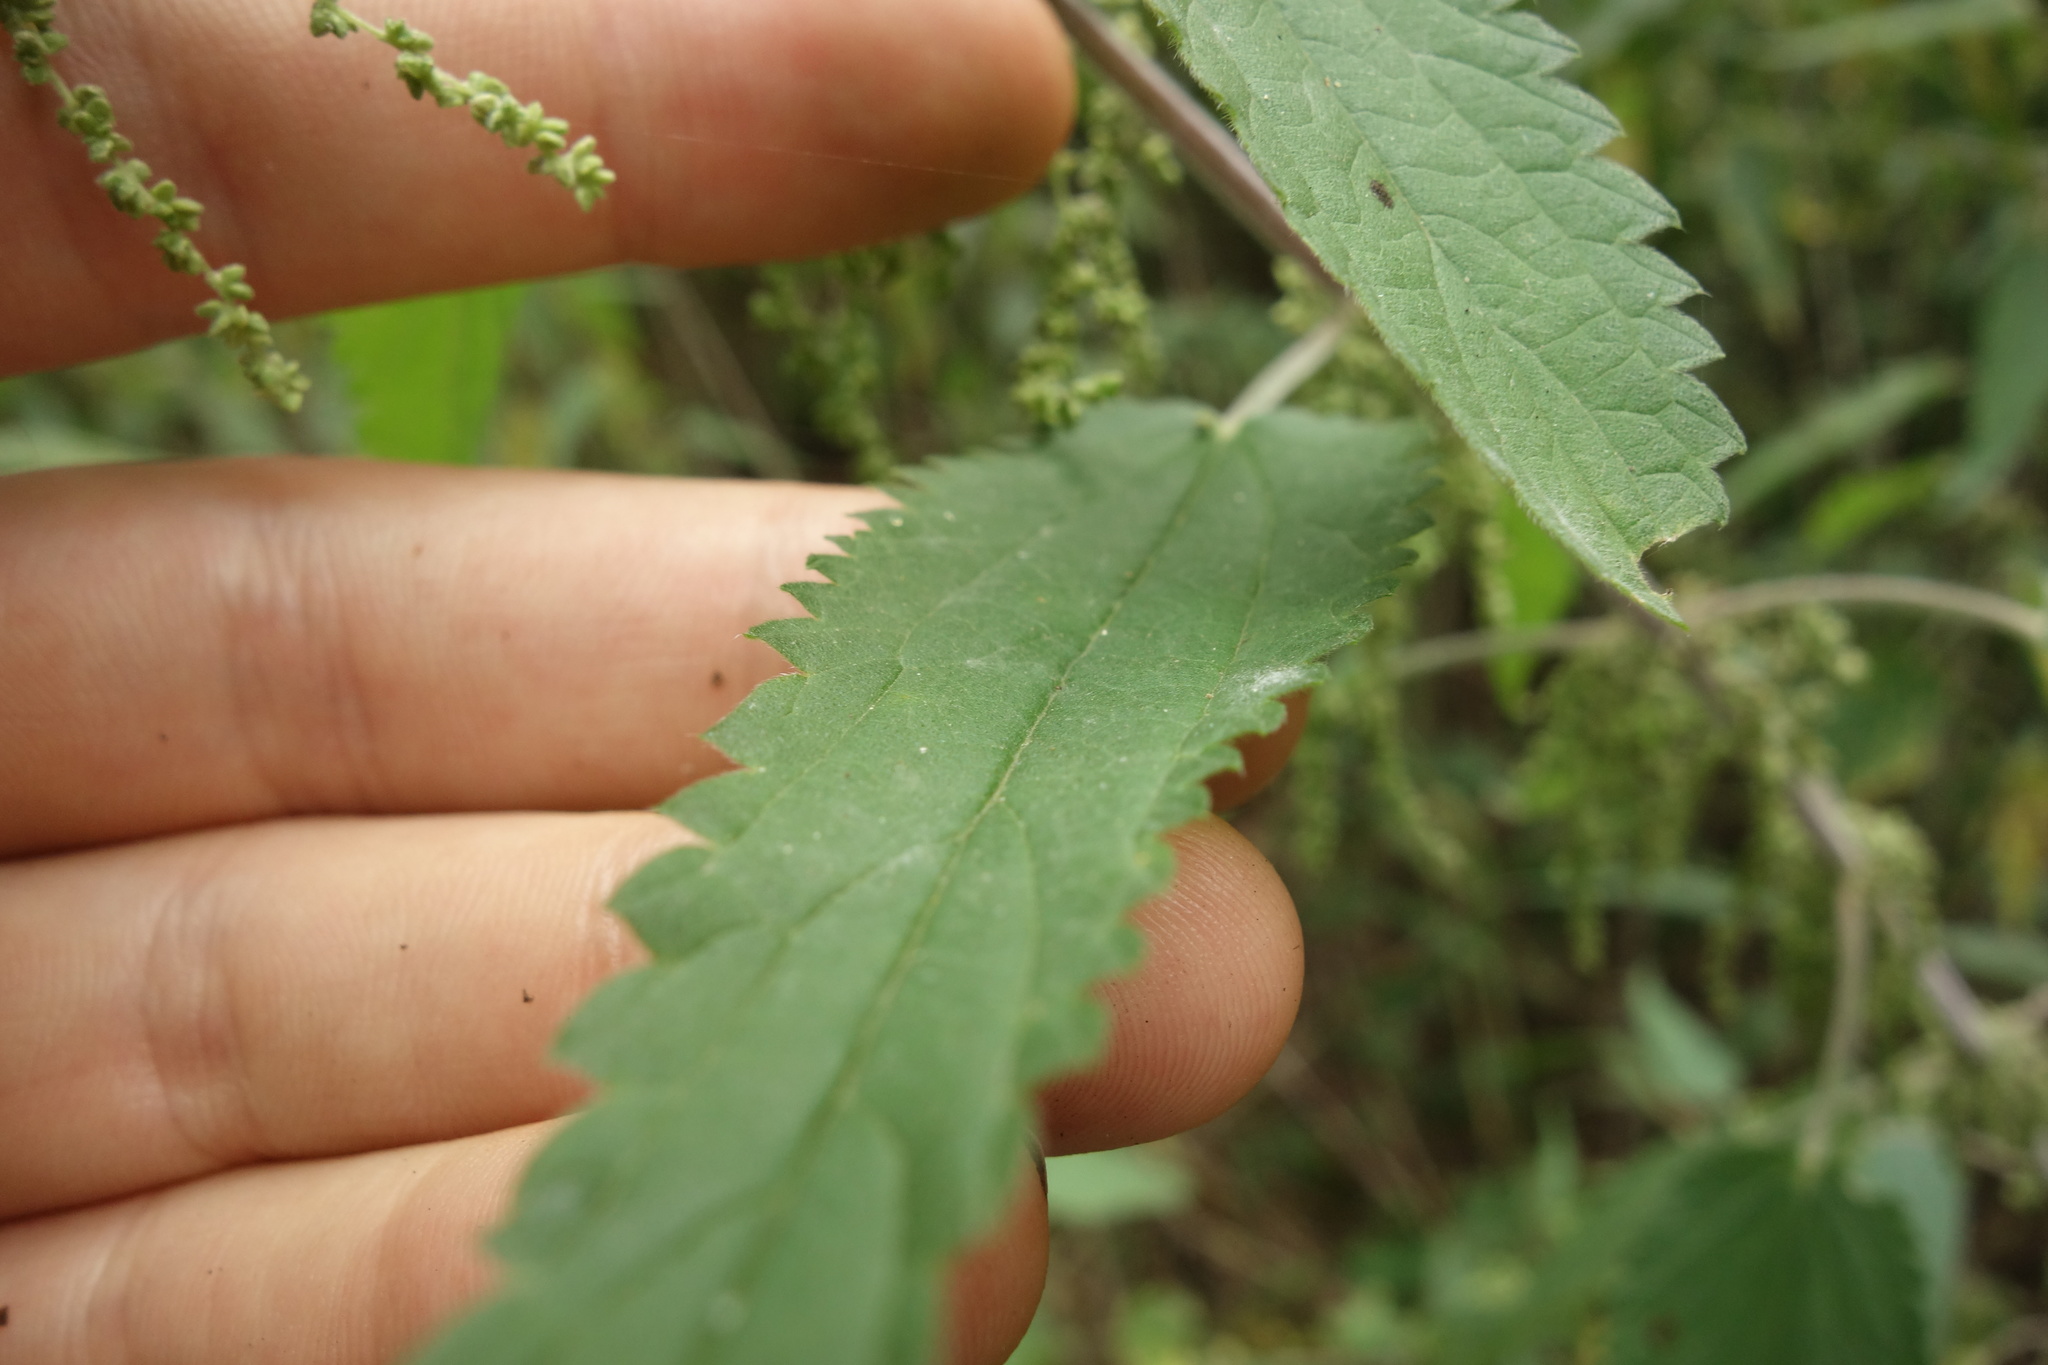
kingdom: Plantae
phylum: Tracheophyta
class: Magnoliopsida
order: Rosales
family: Urticaceae
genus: Urtica
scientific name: Urtica galeopsifolia
